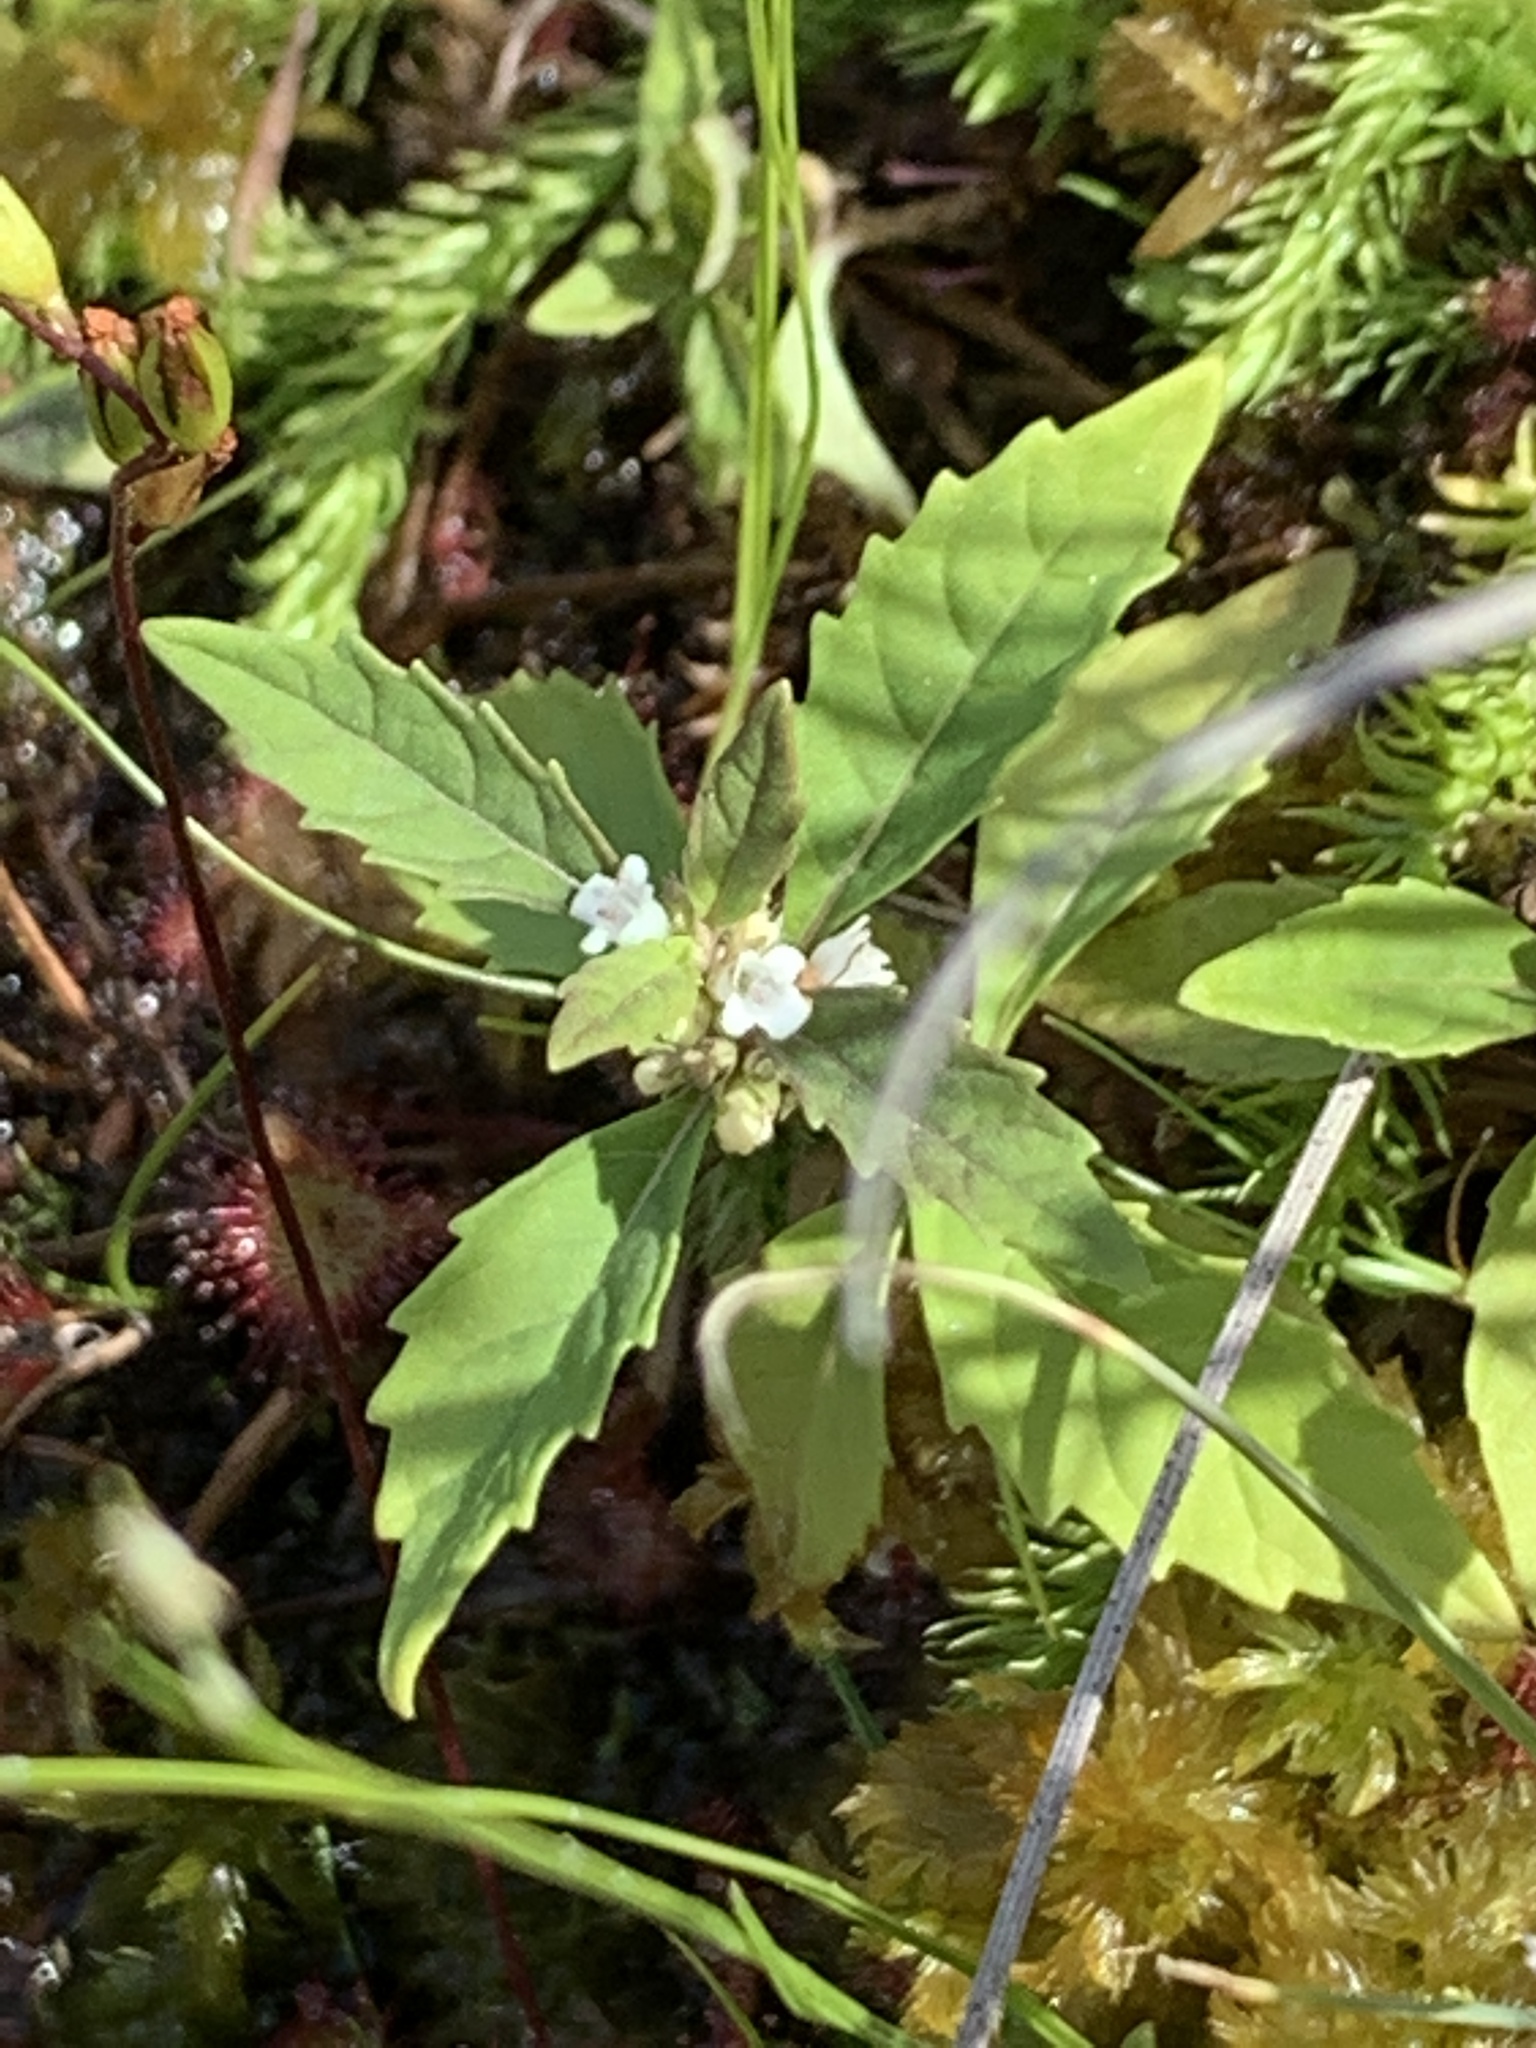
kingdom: Plantae
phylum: Tracheophyta
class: Magnoliopsida
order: Lamiales
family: Lamiaceae
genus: Lycopus
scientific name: Lycopus uniflorus
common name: Northern bugleweed
